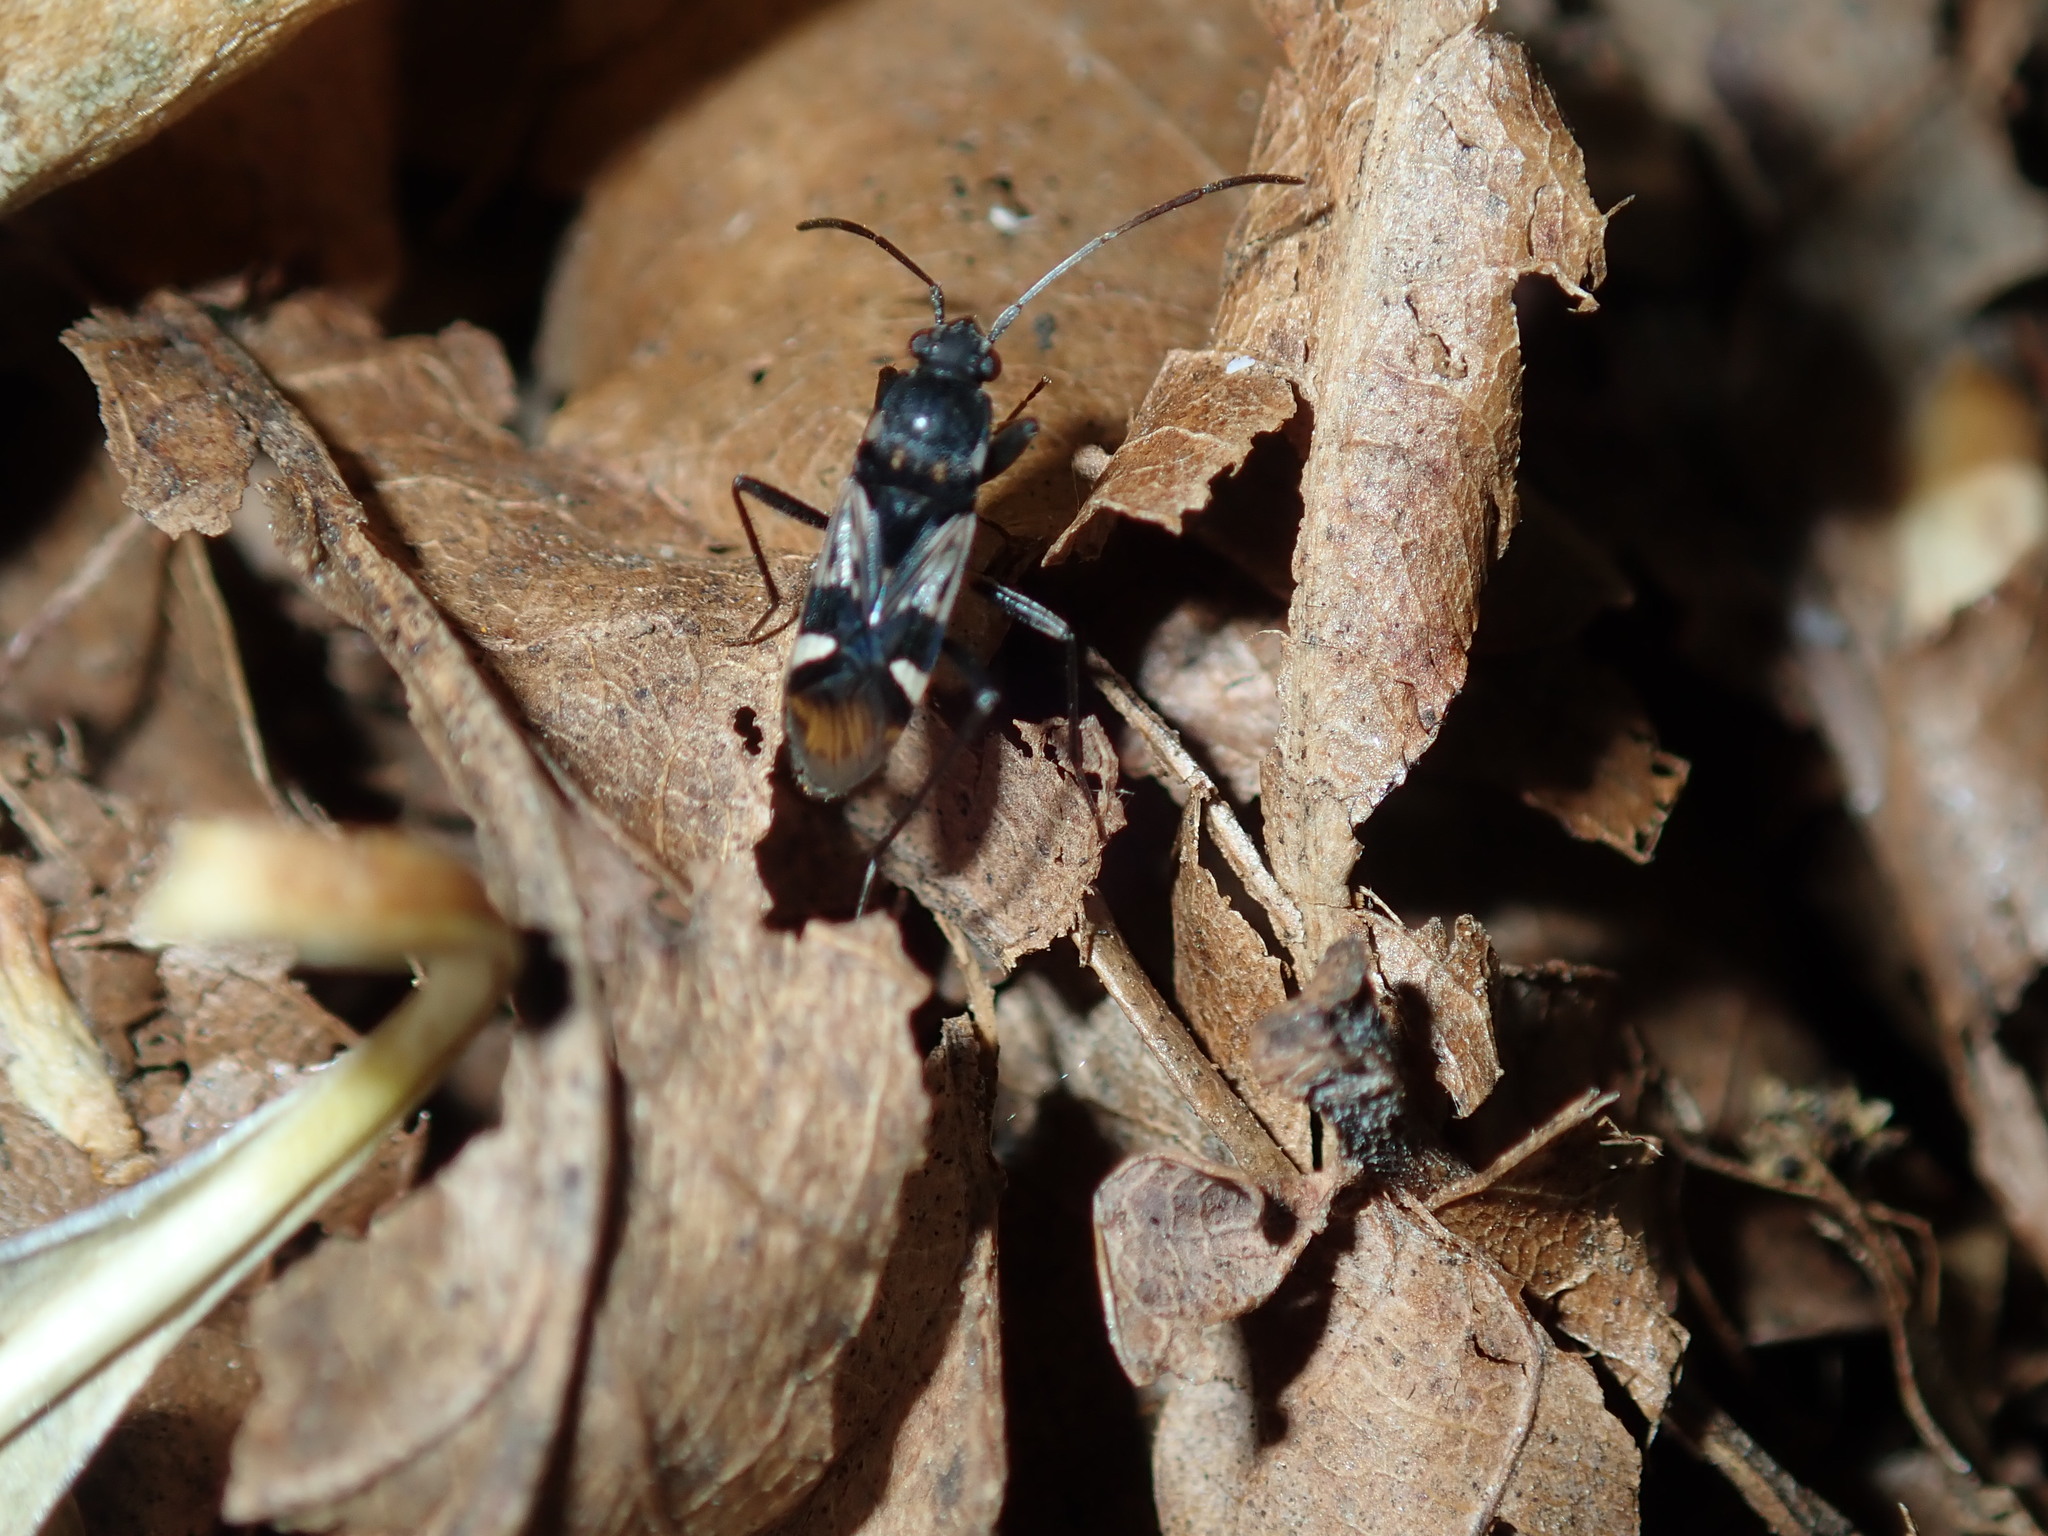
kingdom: Animalia
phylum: Arthropoda
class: Insecta
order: Hemiptera
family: Rhyparochromidae
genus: Dieuches
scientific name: Dieuches maculicollis
